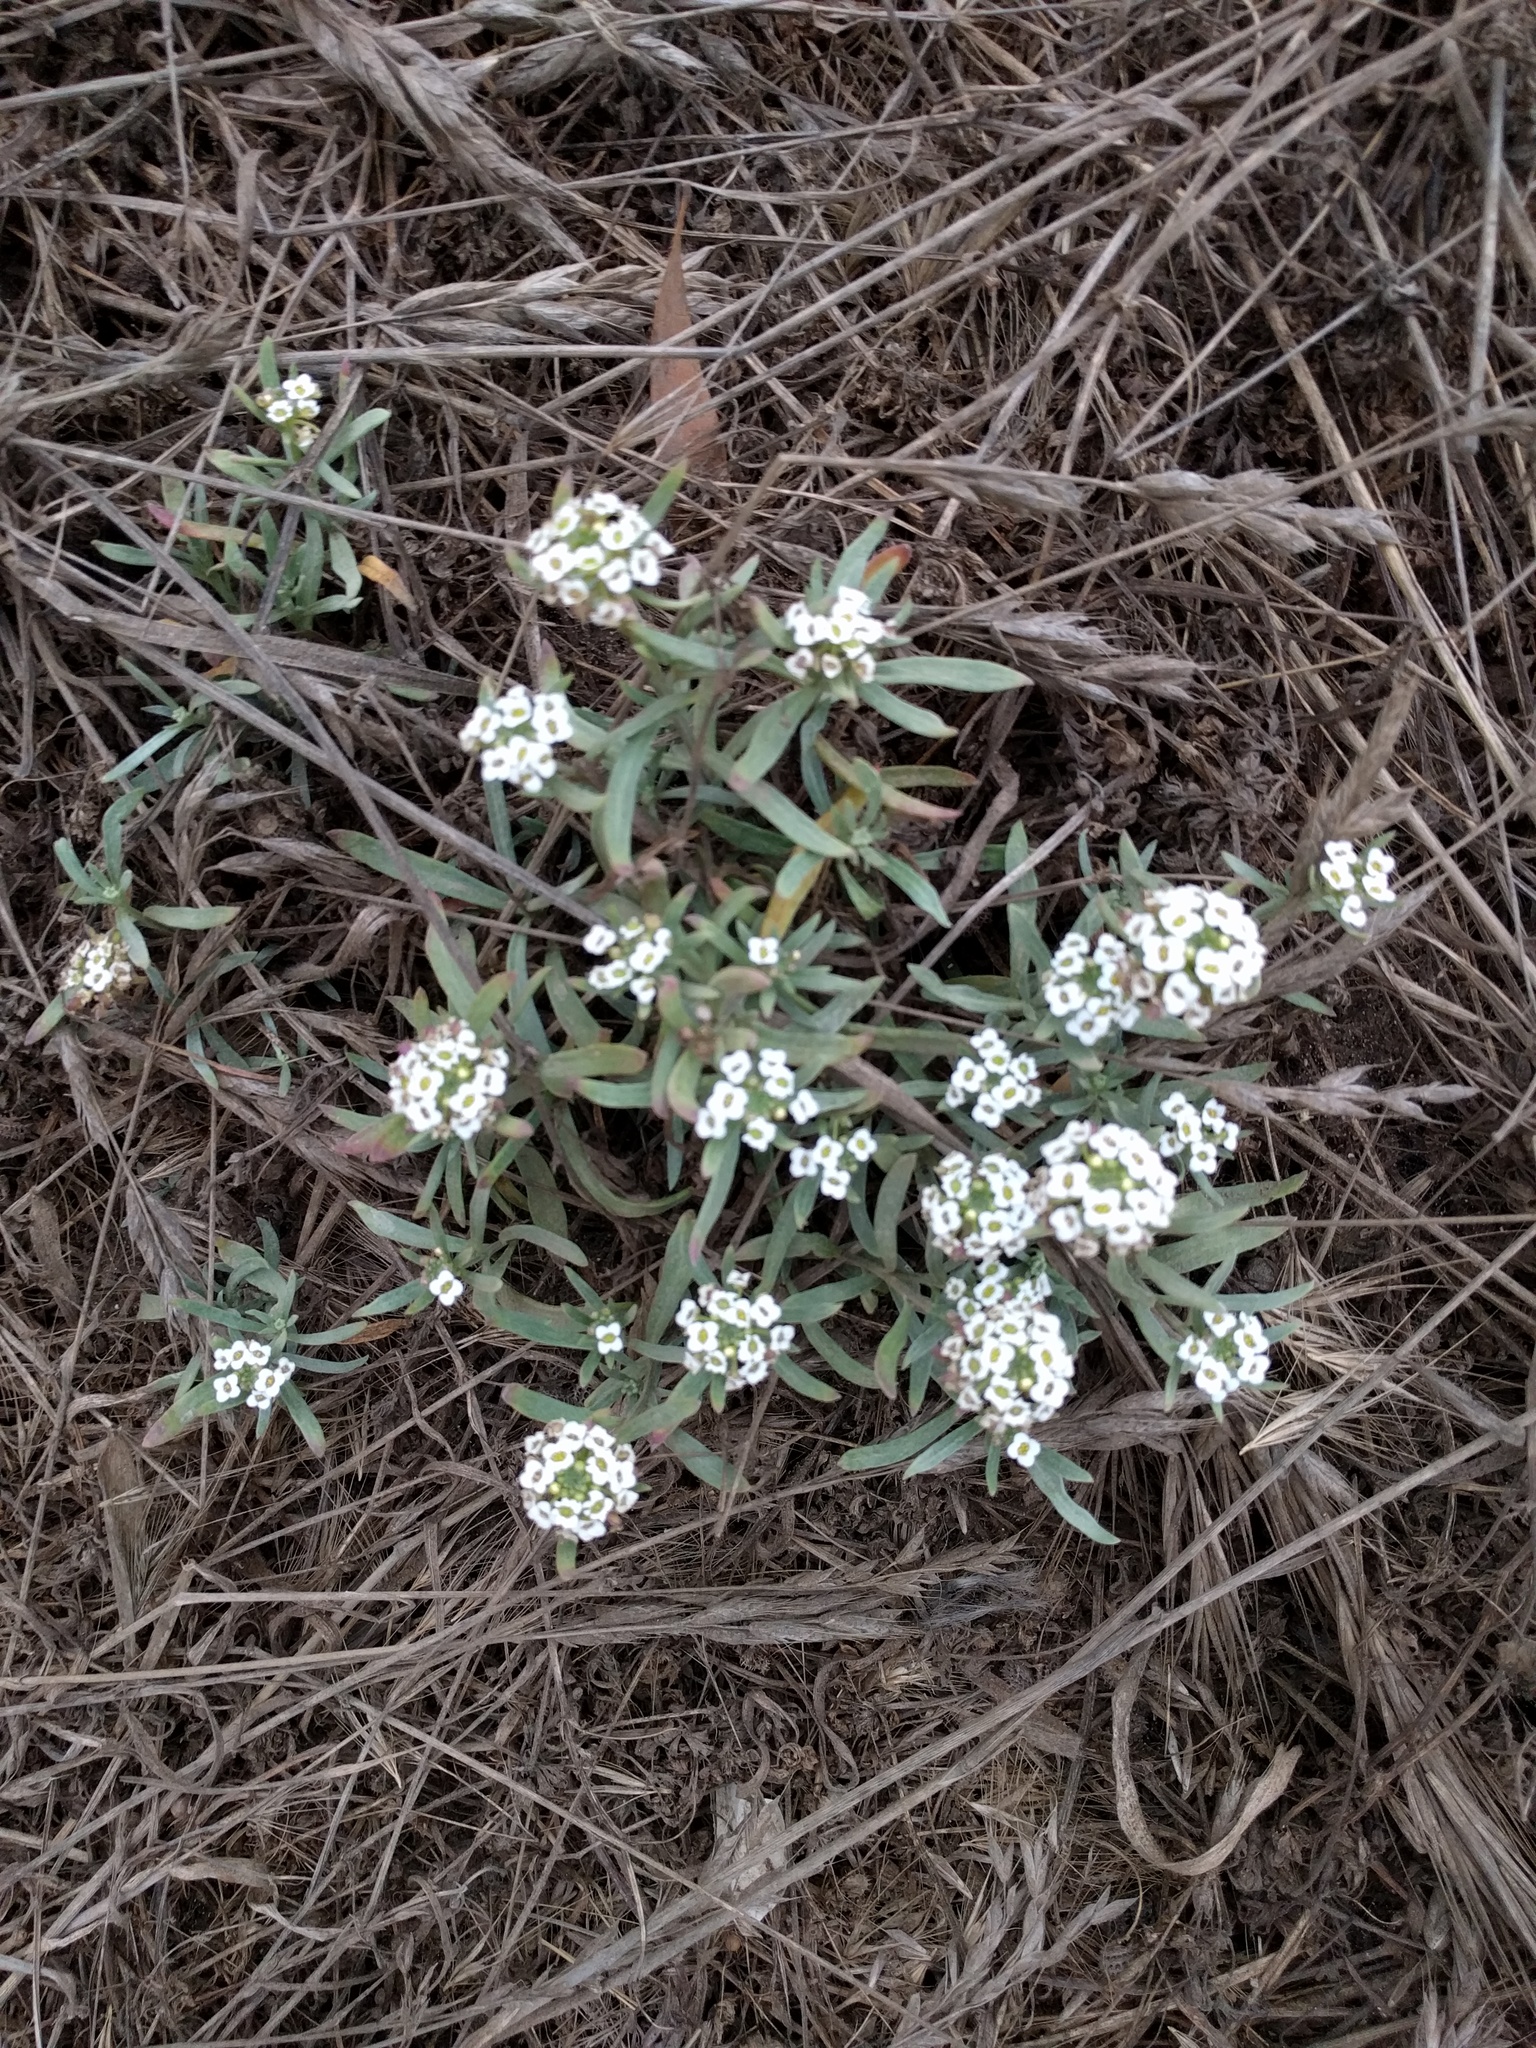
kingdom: Plantae
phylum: Tracheophyta
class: Magnoliopsida
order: Brassicales
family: Brassicaceae
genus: Lobularia
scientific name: Lobularia maritima
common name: Sweet alison
